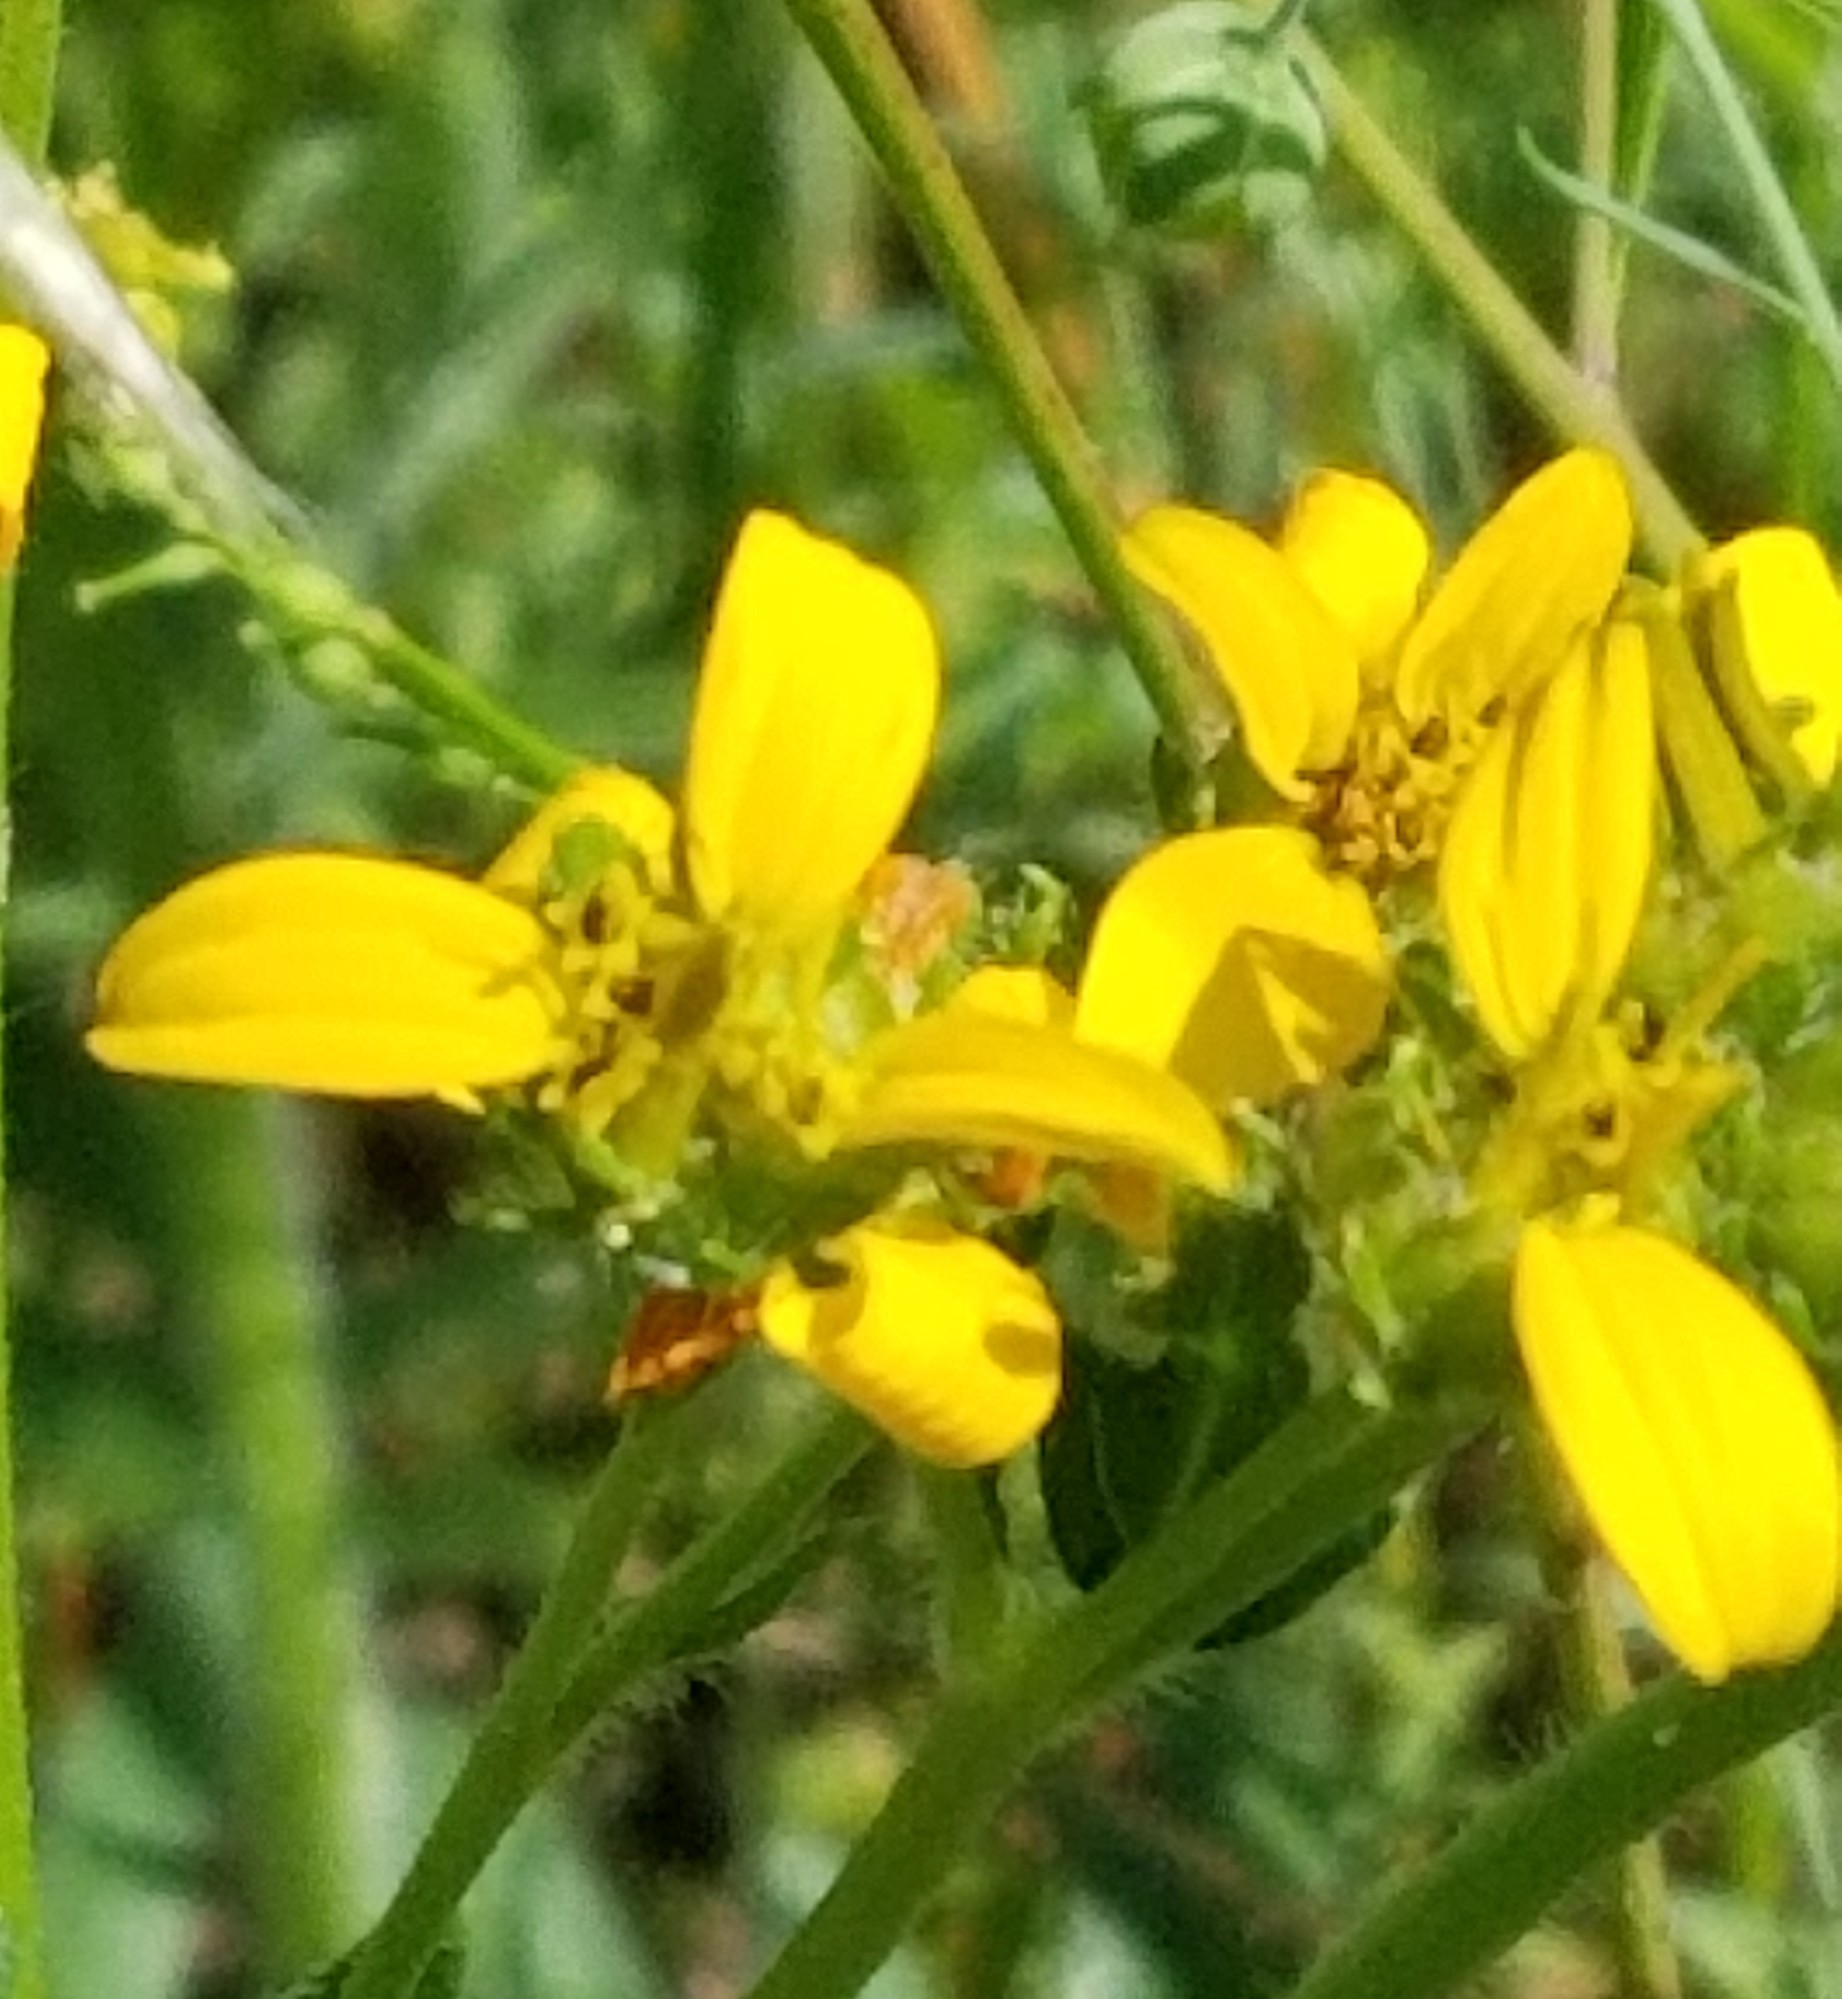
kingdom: Plantae
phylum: Tracheophyta
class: Magnoliopsida
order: Asterales
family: Asteraceae
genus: Engelmannia
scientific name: Engelmannia peristenia
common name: Engelmann's daisy
